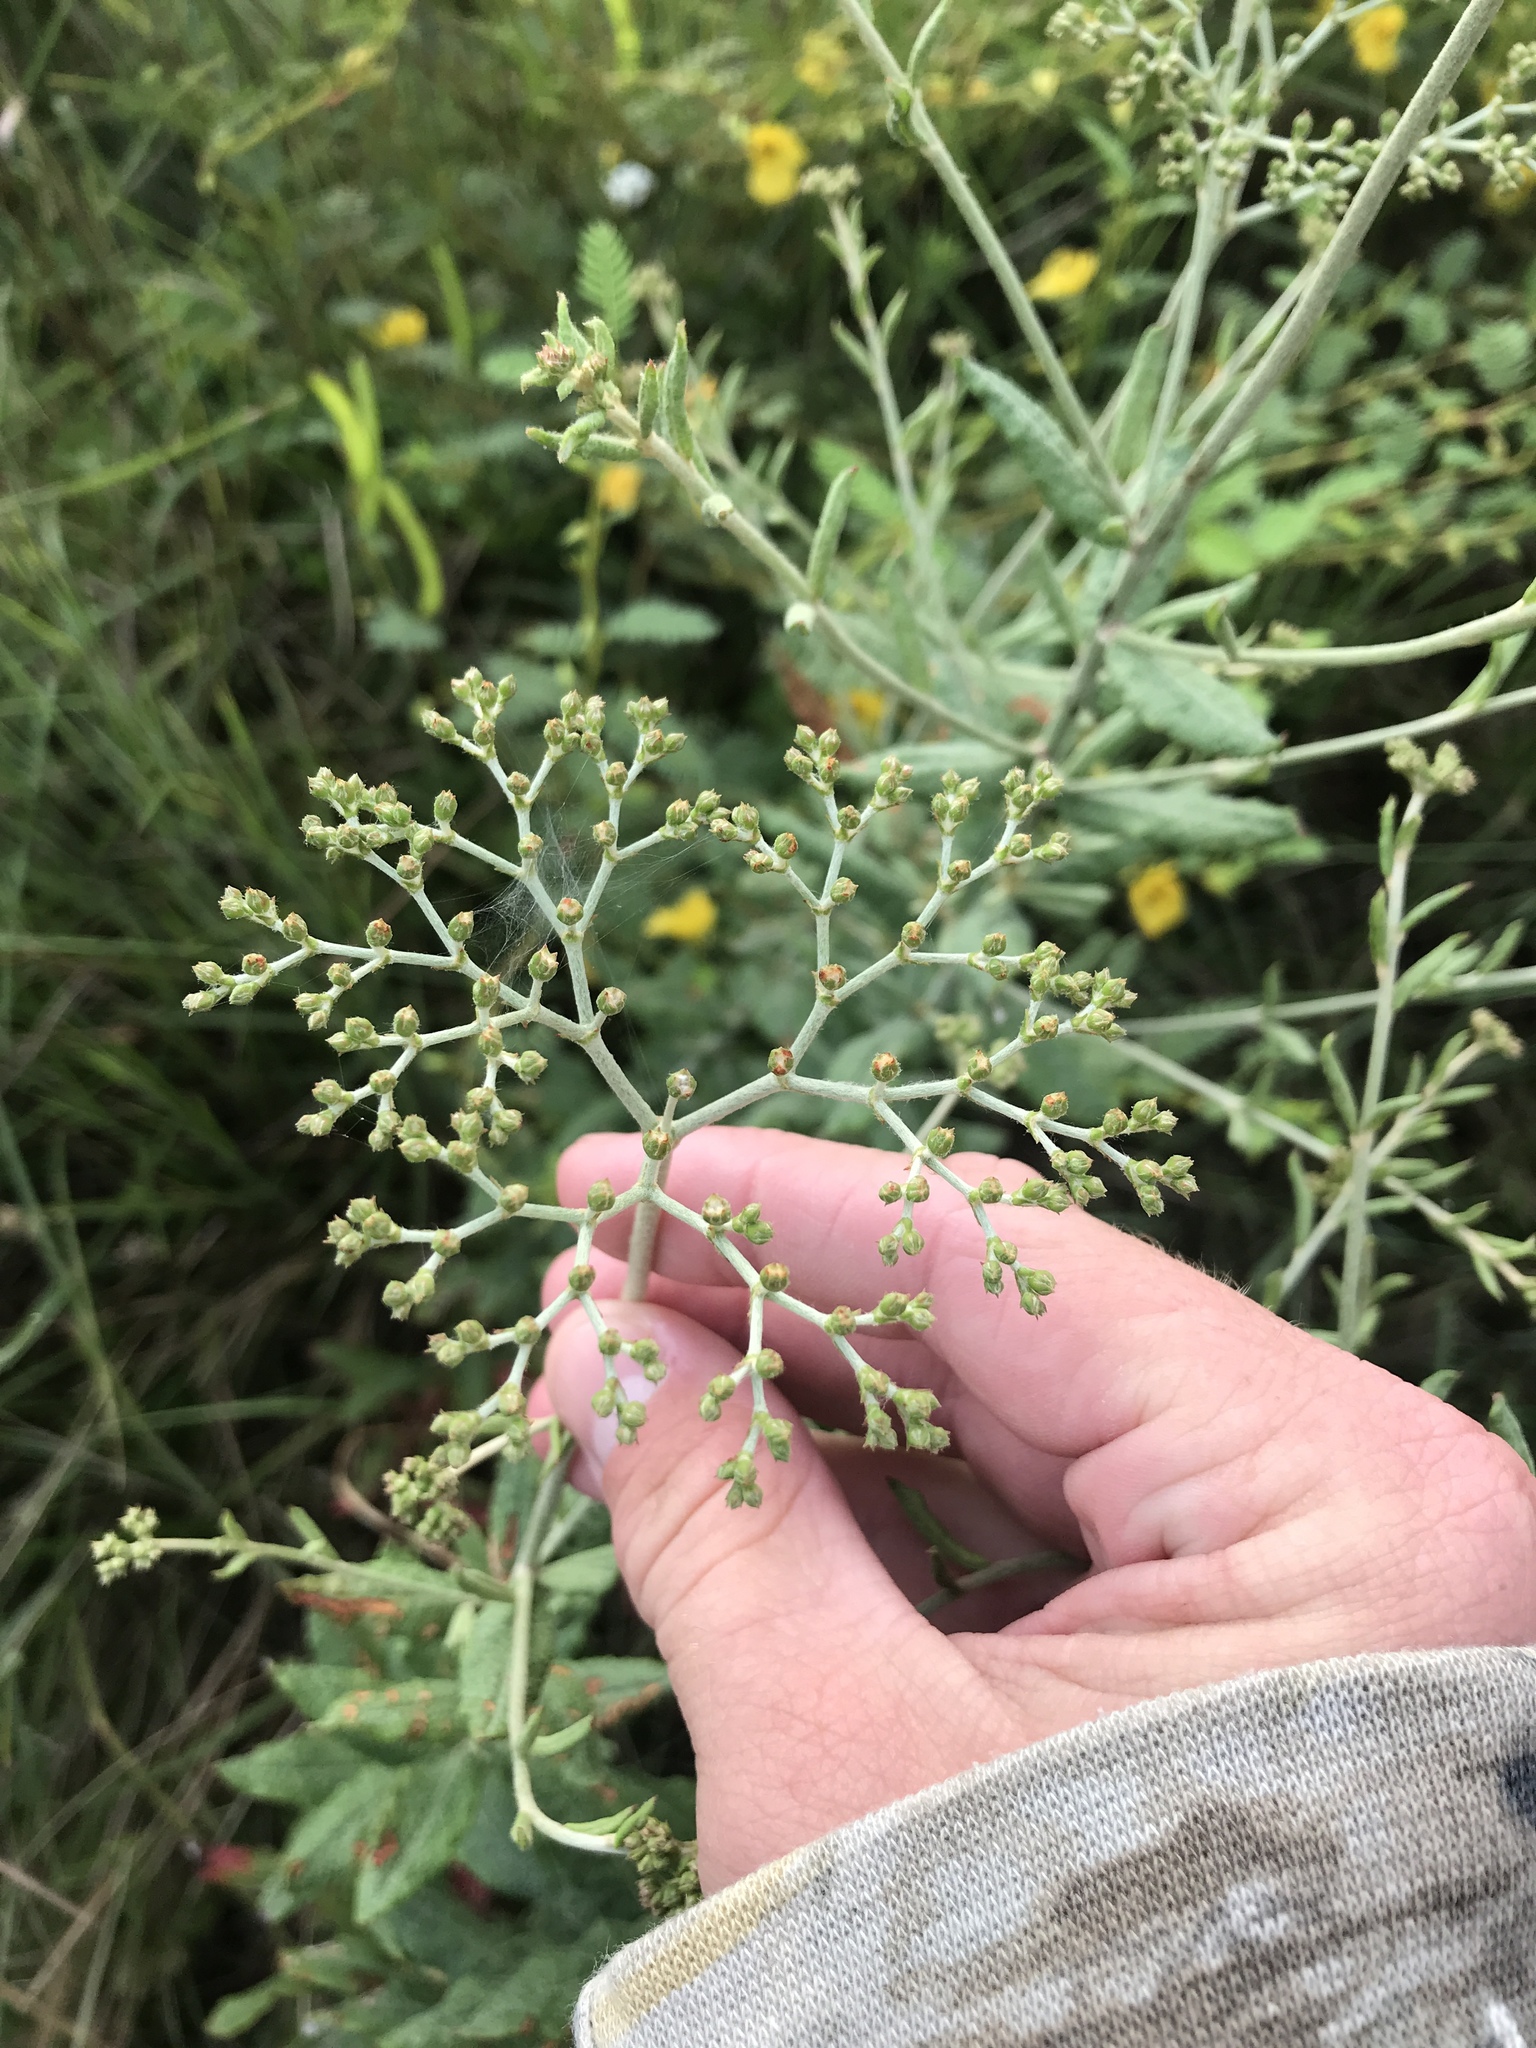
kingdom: Plantae
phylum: Tracheophyta
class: Magnoliopsida
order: Caryophyllales
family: Polygonaceae
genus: Eriogonum
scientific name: Eriogonum multiflorum
